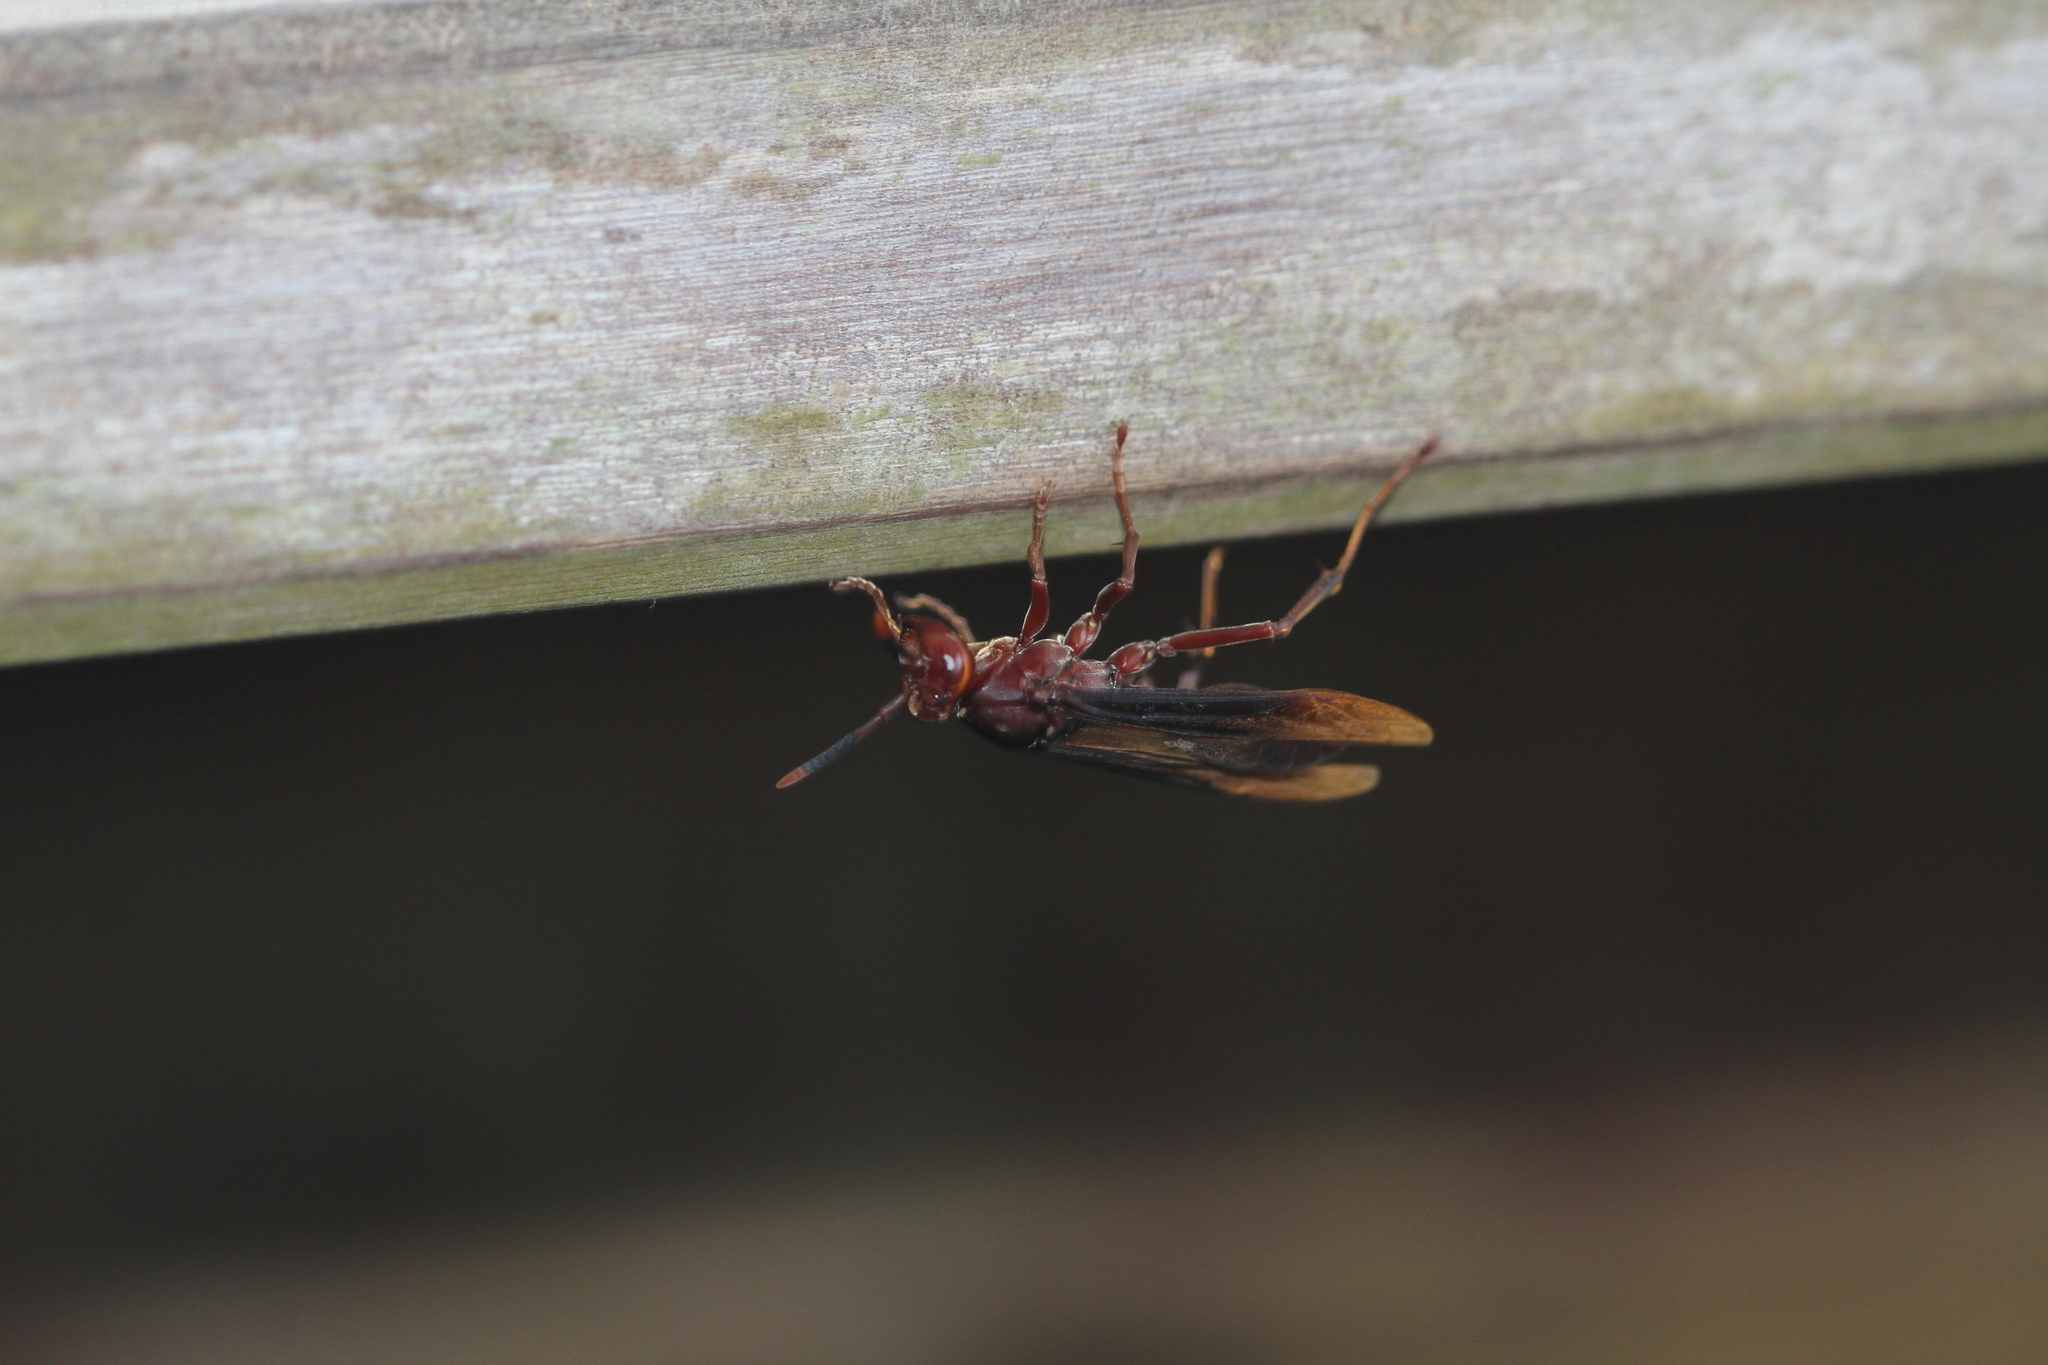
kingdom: Animalia
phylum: Arthropoda
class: Insecta
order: Hymenoptera
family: Eumenidae
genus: Polistes
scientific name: Polistes infuscatus
